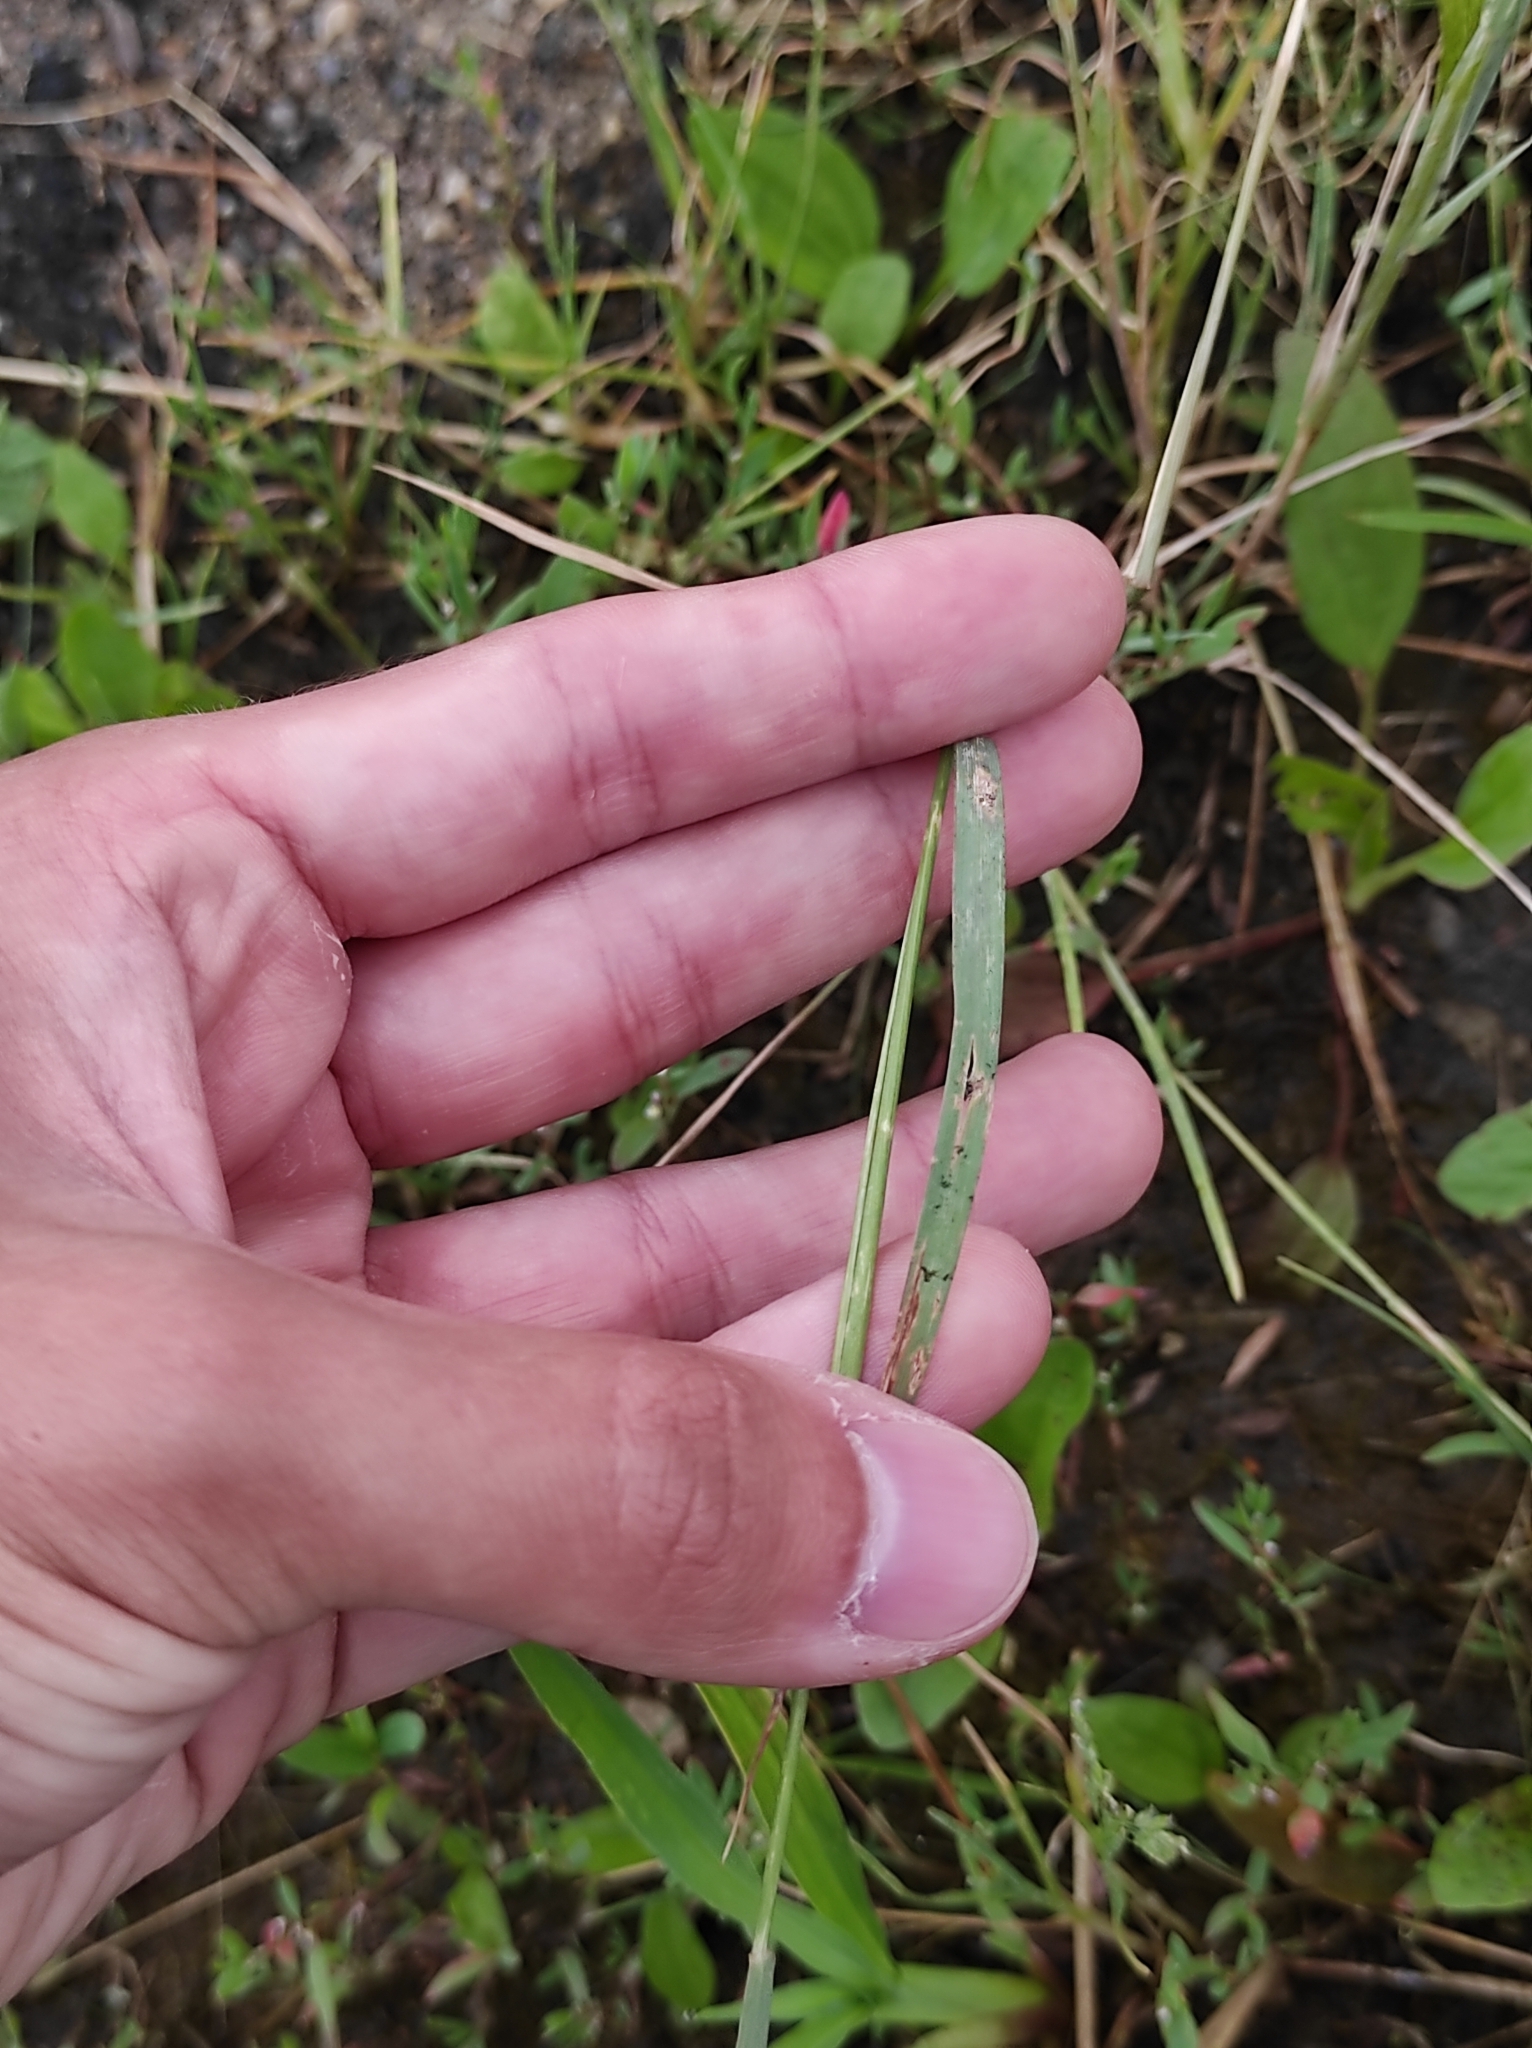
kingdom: Plantae
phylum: Tracheophyta
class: Liliopsida
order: Poales
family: Poaceae
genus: Hordeum
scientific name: Hordeum jubatum
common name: Foxtail barley
